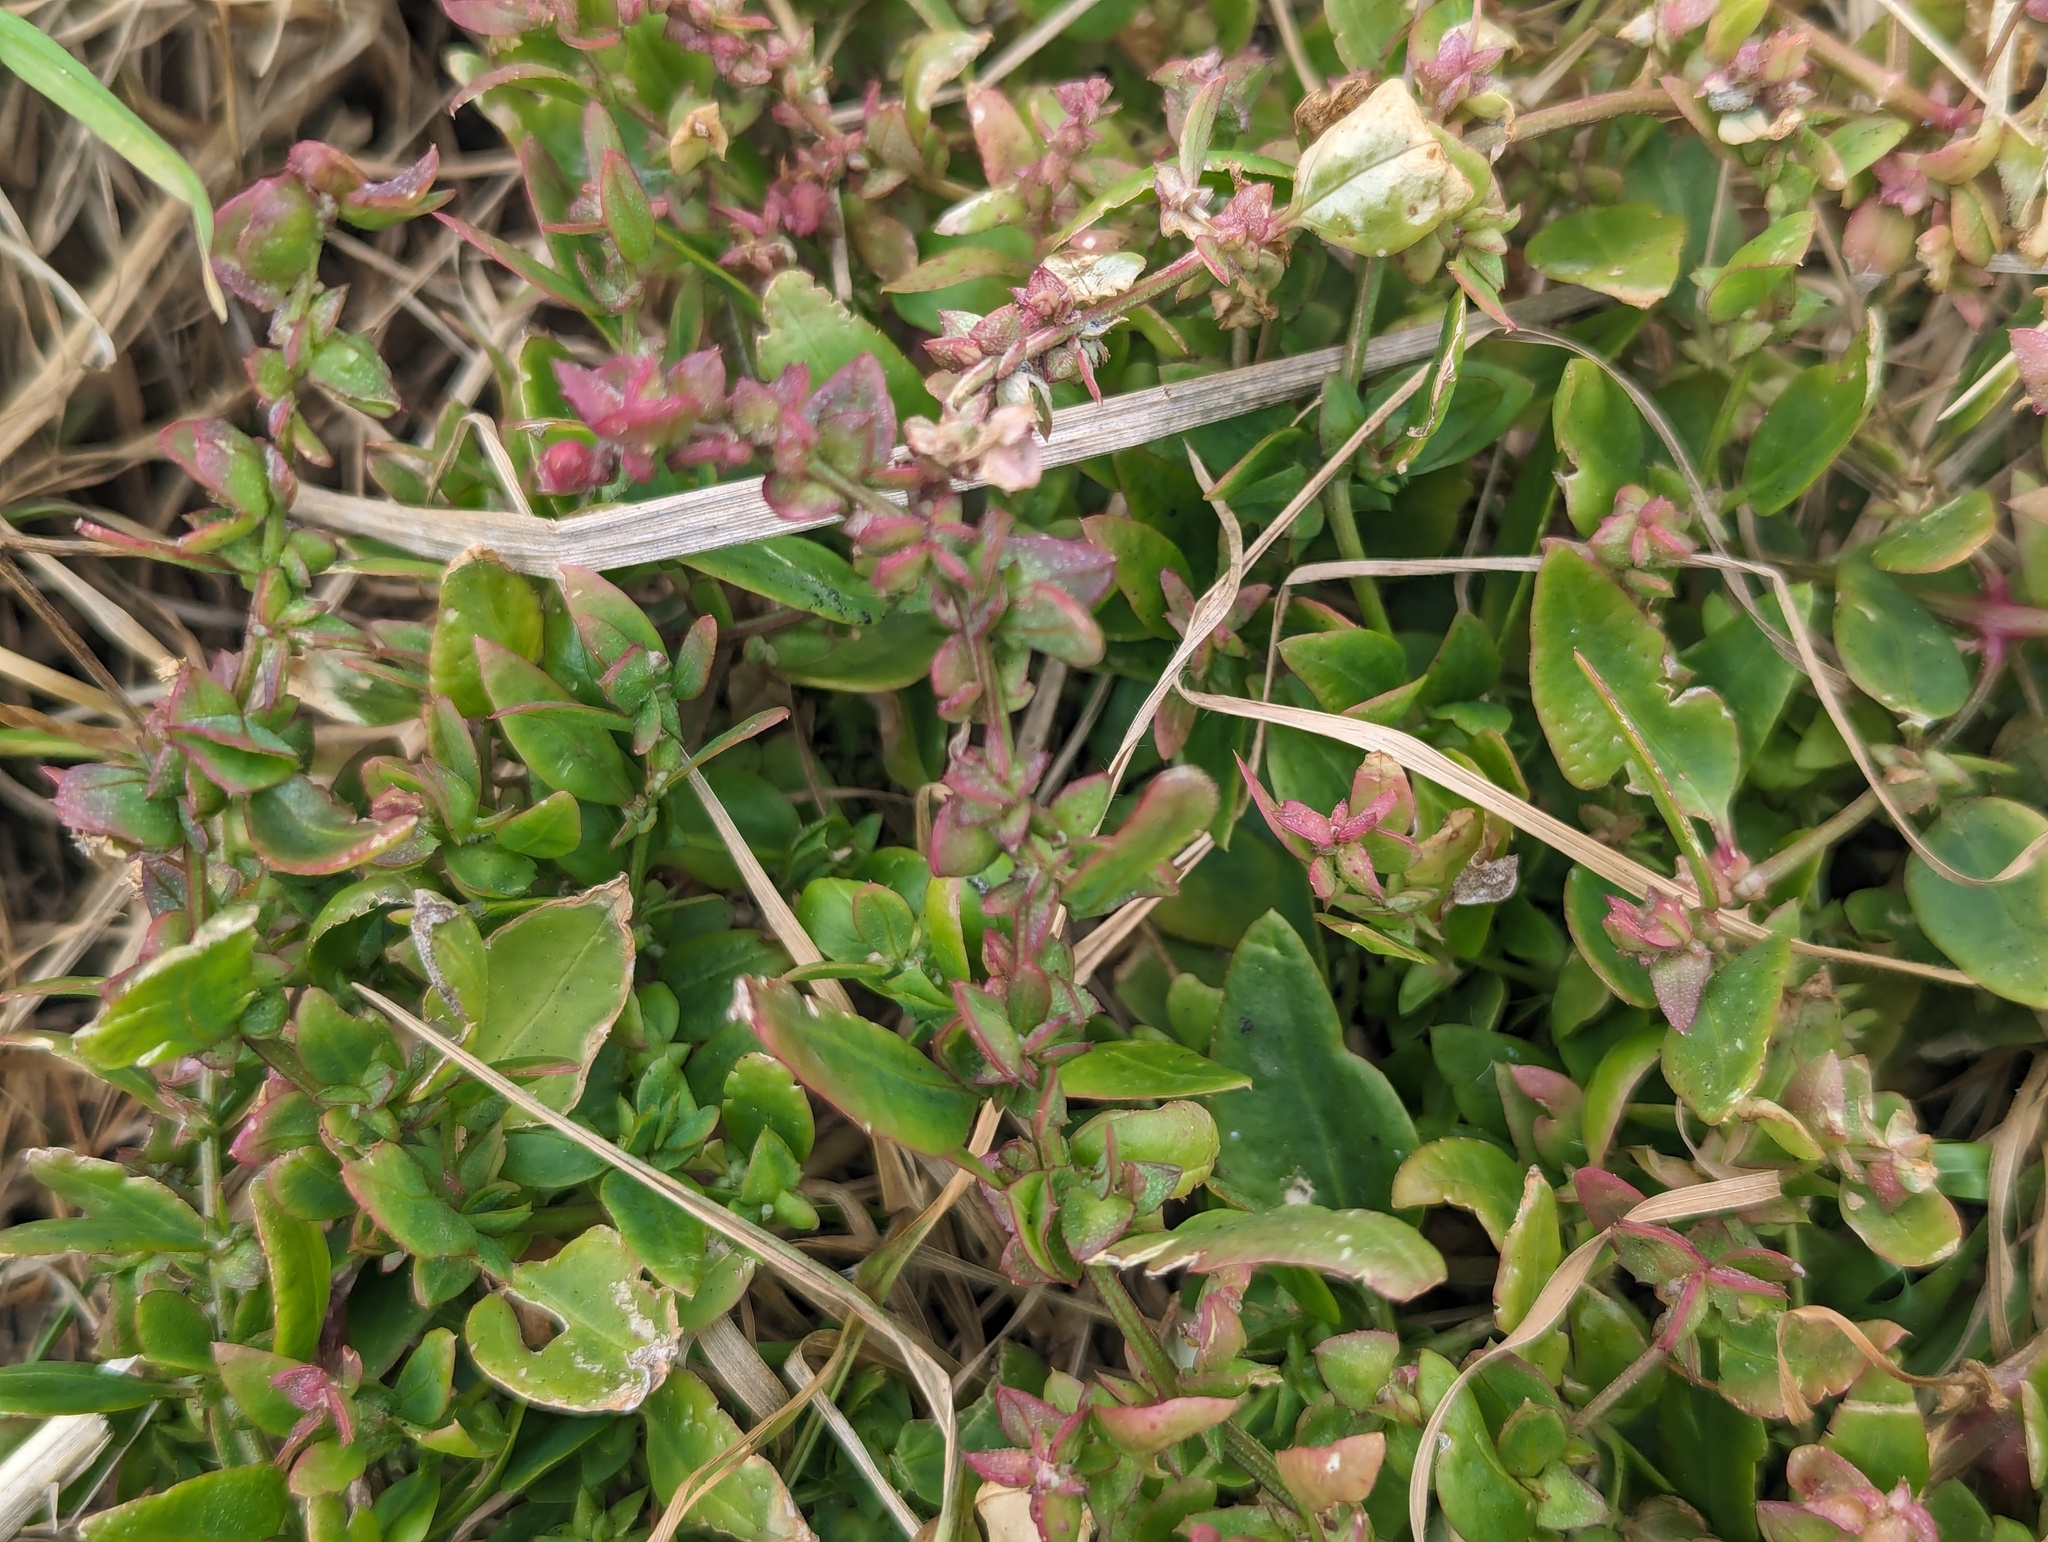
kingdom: Plantae
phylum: Tracheophyta
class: Magnoliopsida
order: Caryophyllales
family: Amaranthaceae
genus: Atriplex
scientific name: Atriplex prostrata
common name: Spear-leaved orache
